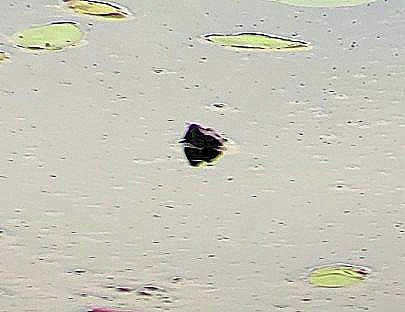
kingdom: Animalia
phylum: Chordata
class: Testudines
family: Chelydridae
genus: Chelydra
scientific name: Chelydra serpentina
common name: Common snapping turtle
